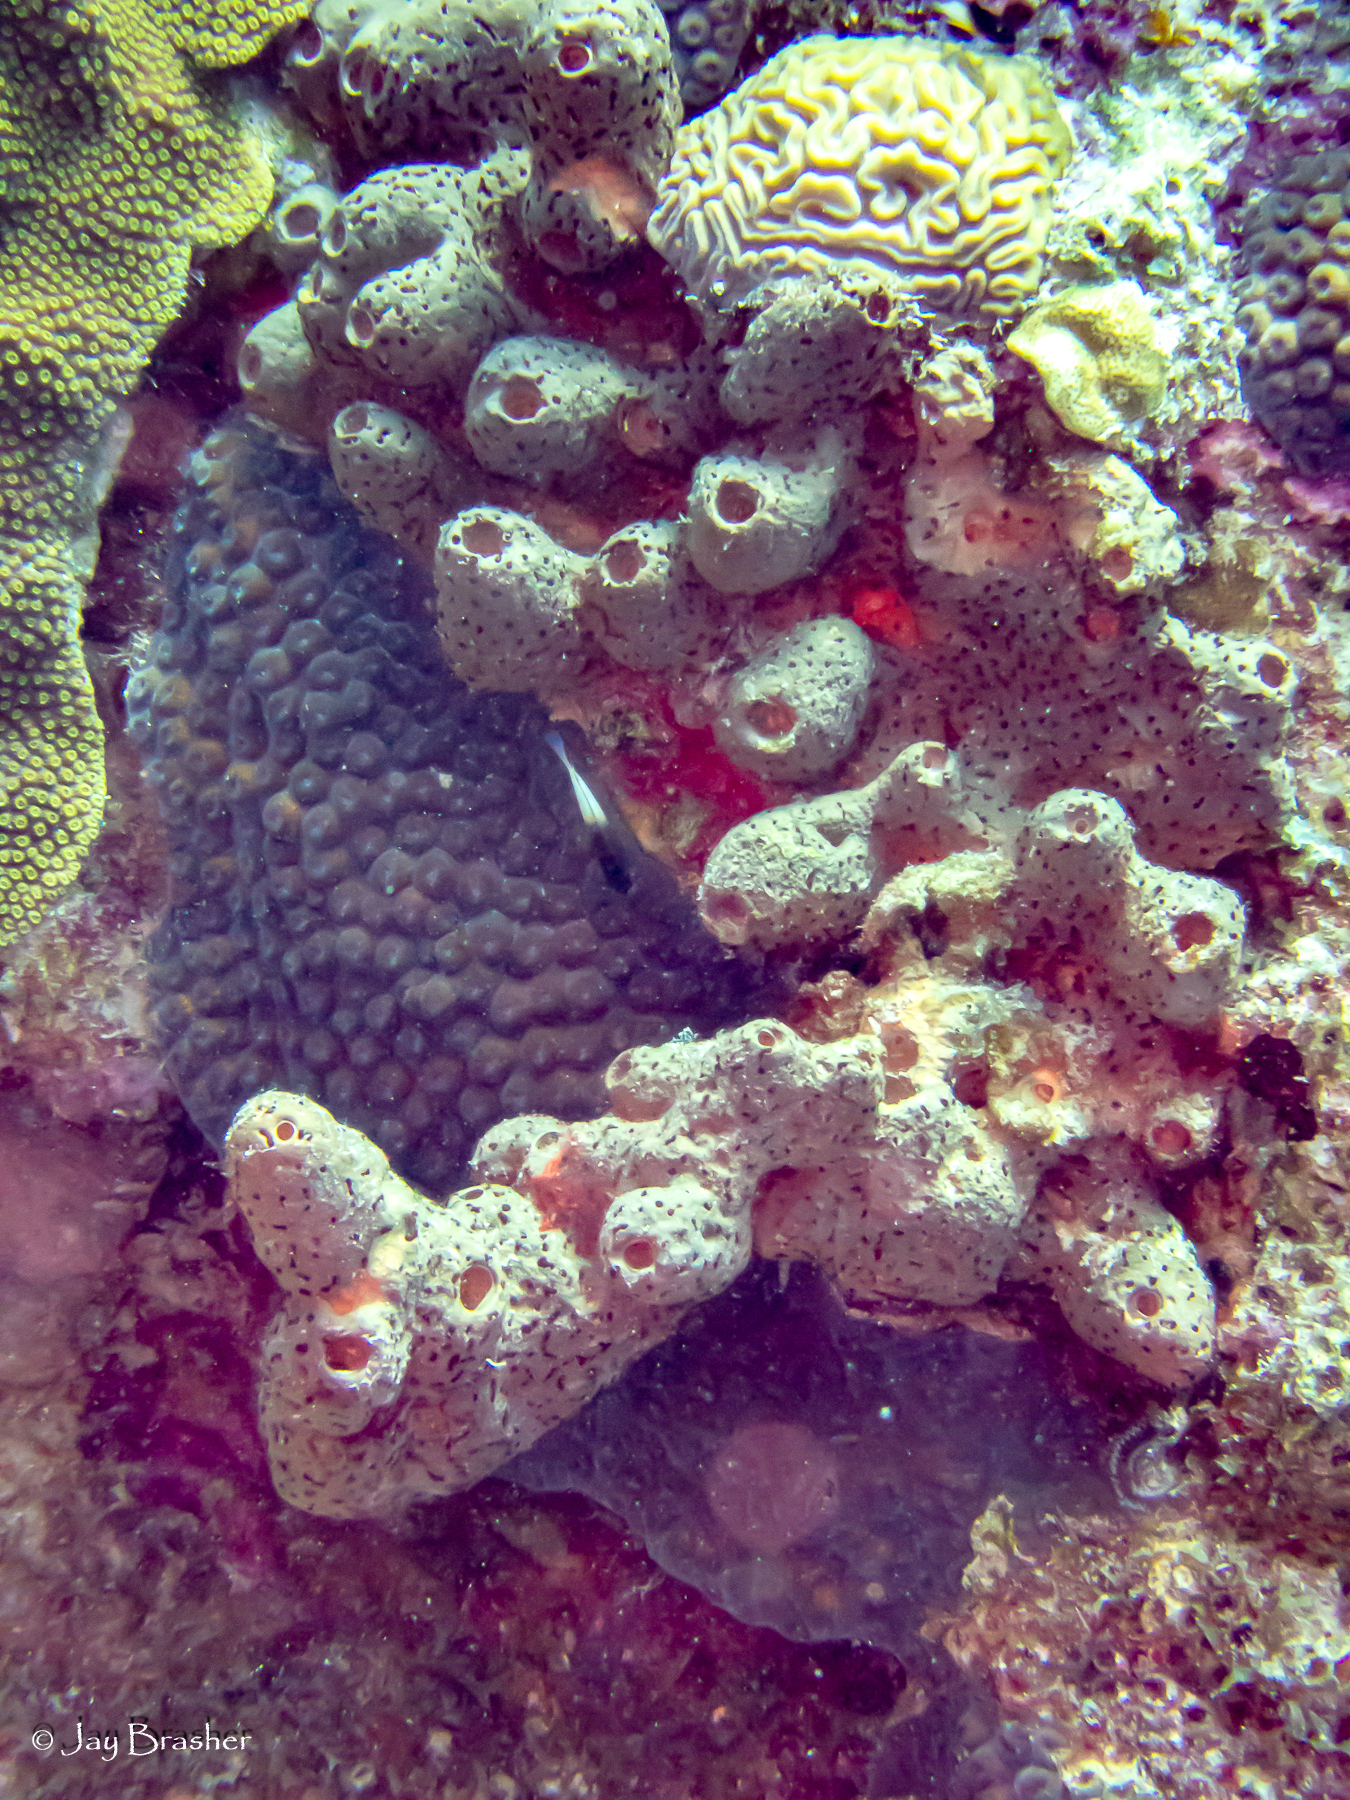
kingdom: Animalia
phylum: Porifera
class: Demospongiae
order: Agelasida
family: Agelasidae
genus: Agelas
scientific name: Agelas conifera
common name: Brown tube sponge
